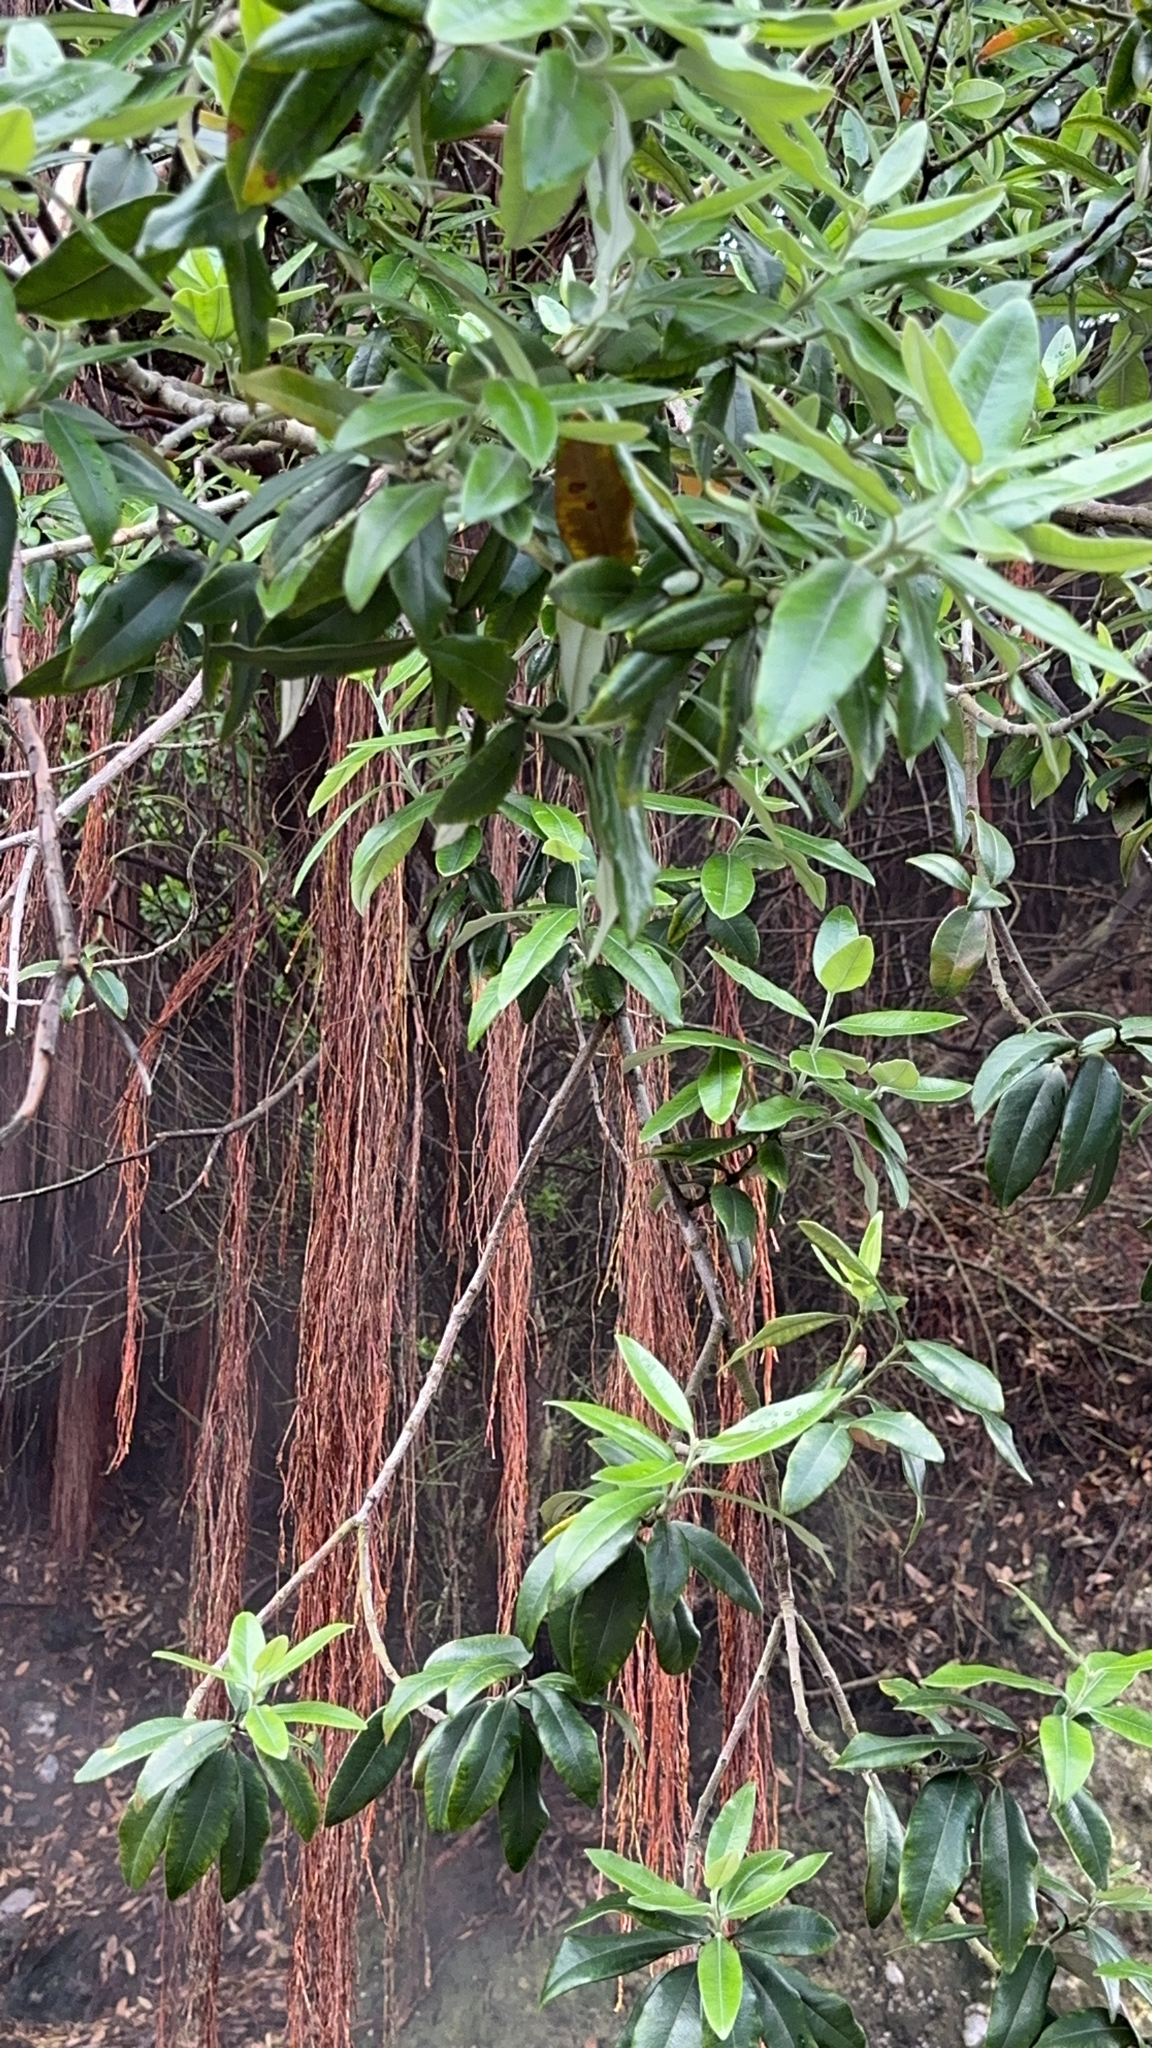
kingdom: Plantae
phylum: Tracheophyta
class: Magnoliopsida
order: Myrtales
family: Myrtaceae
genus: Metrosideros
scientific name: Metrosideros excelsa
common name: New zealand christmastree
